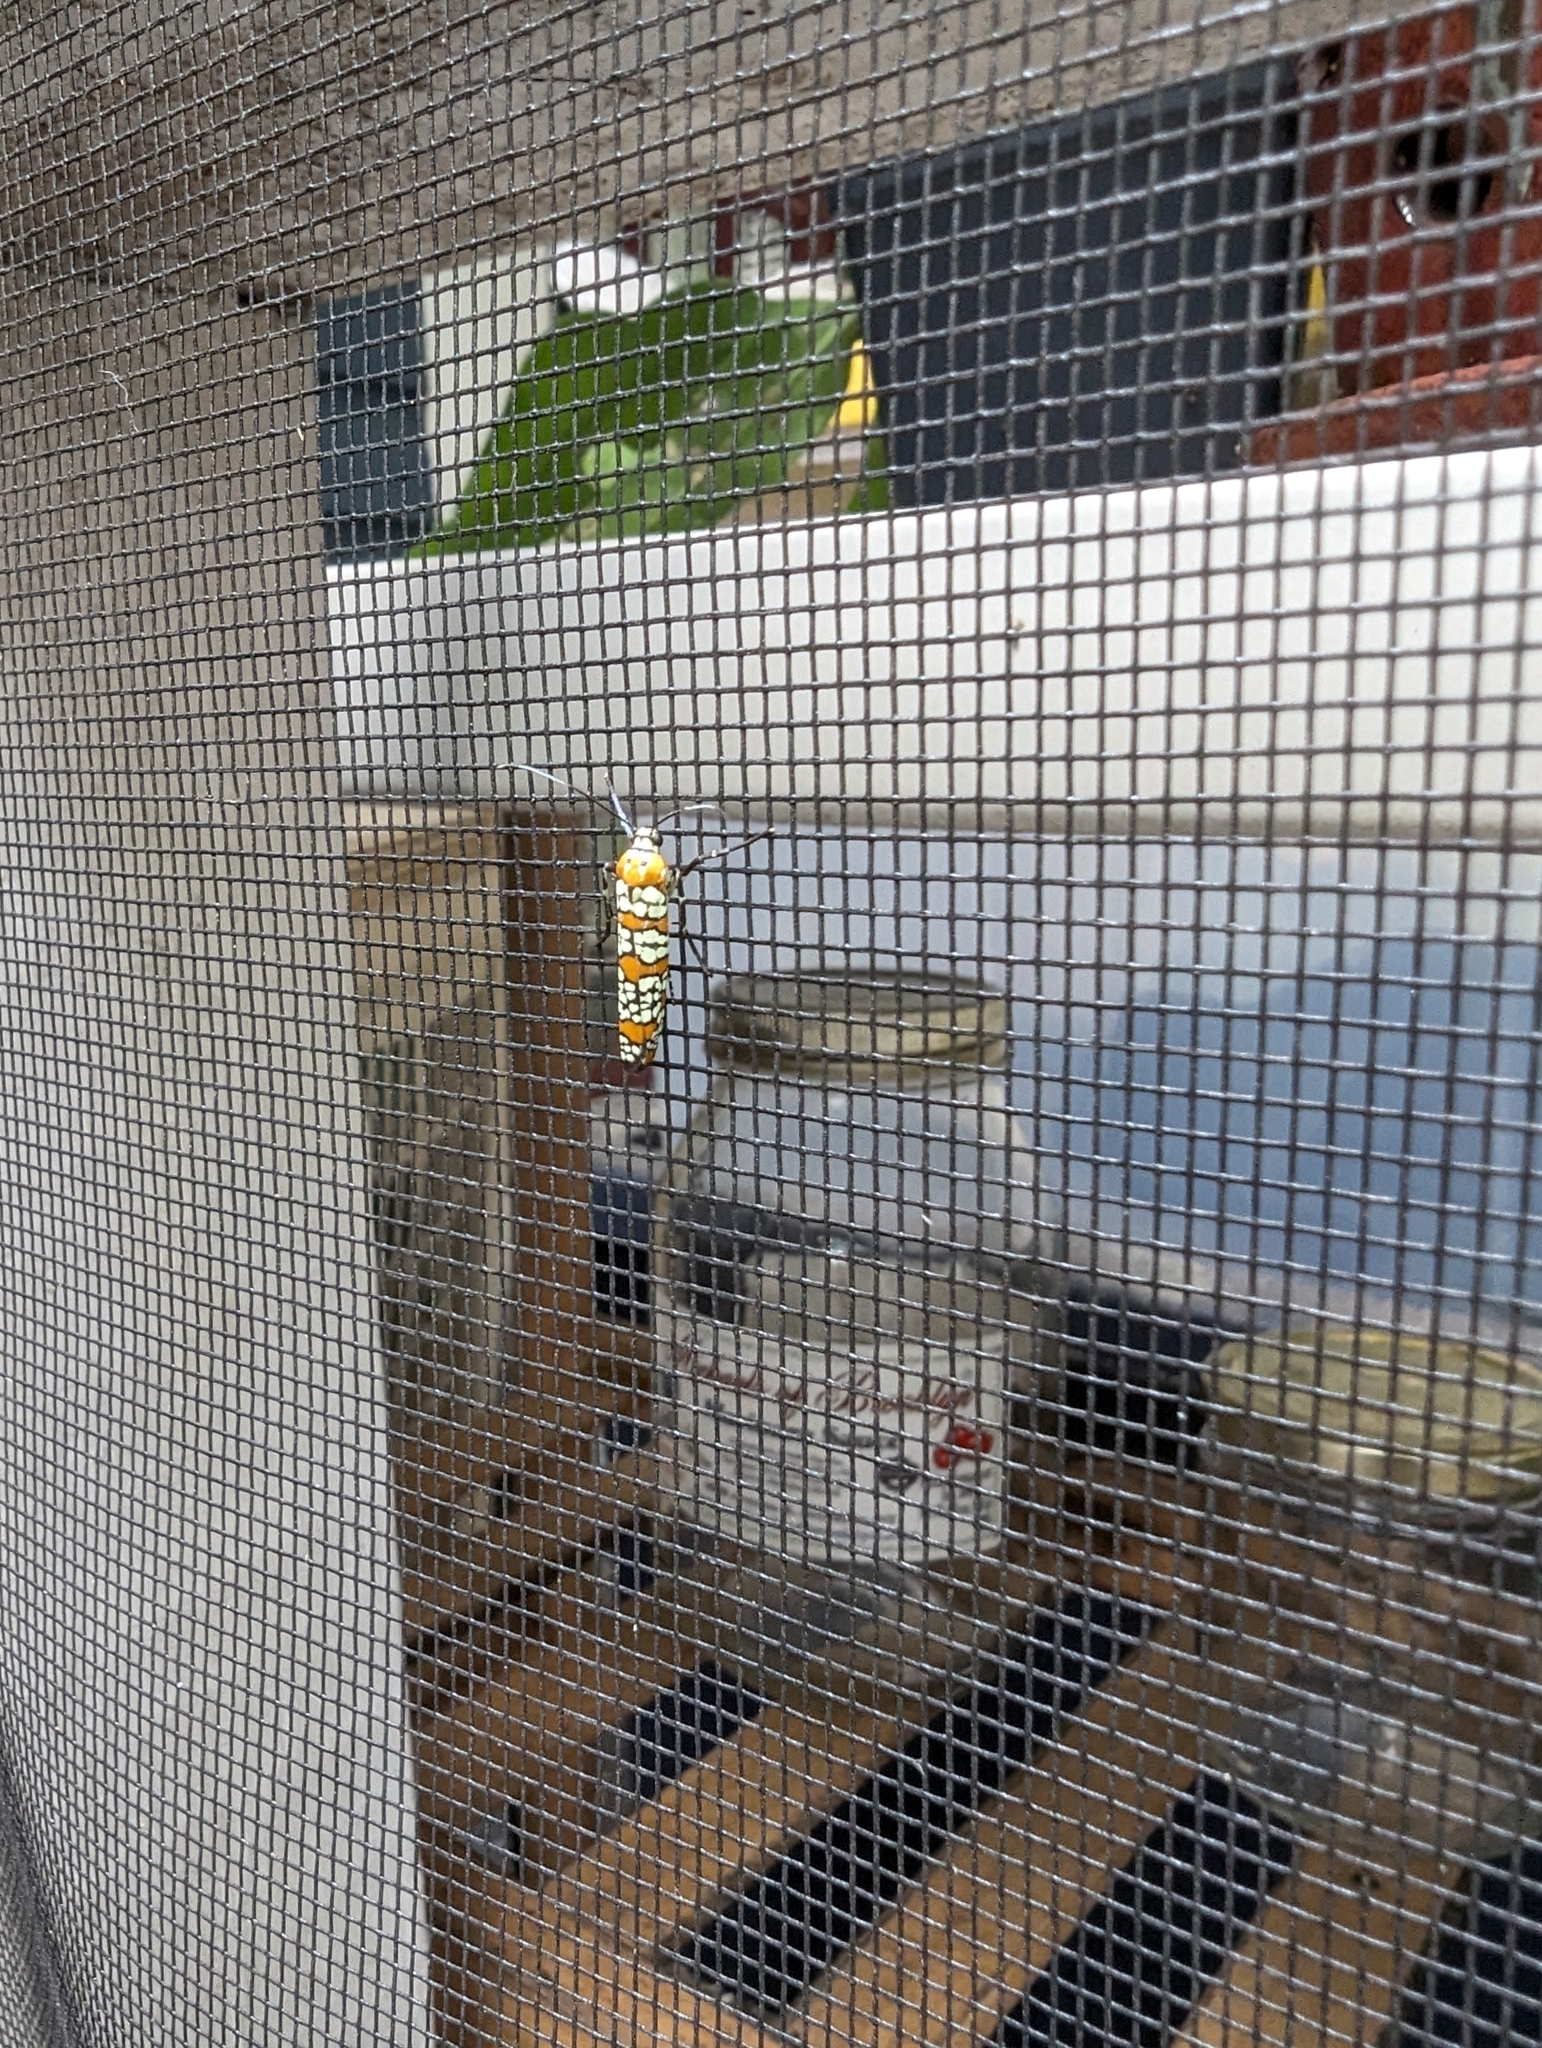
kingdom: Animalia
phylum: Arthropoda
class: Insecta
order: Lepidoptera
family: Attevidae
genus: Atteva
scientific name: Atteva punctella
